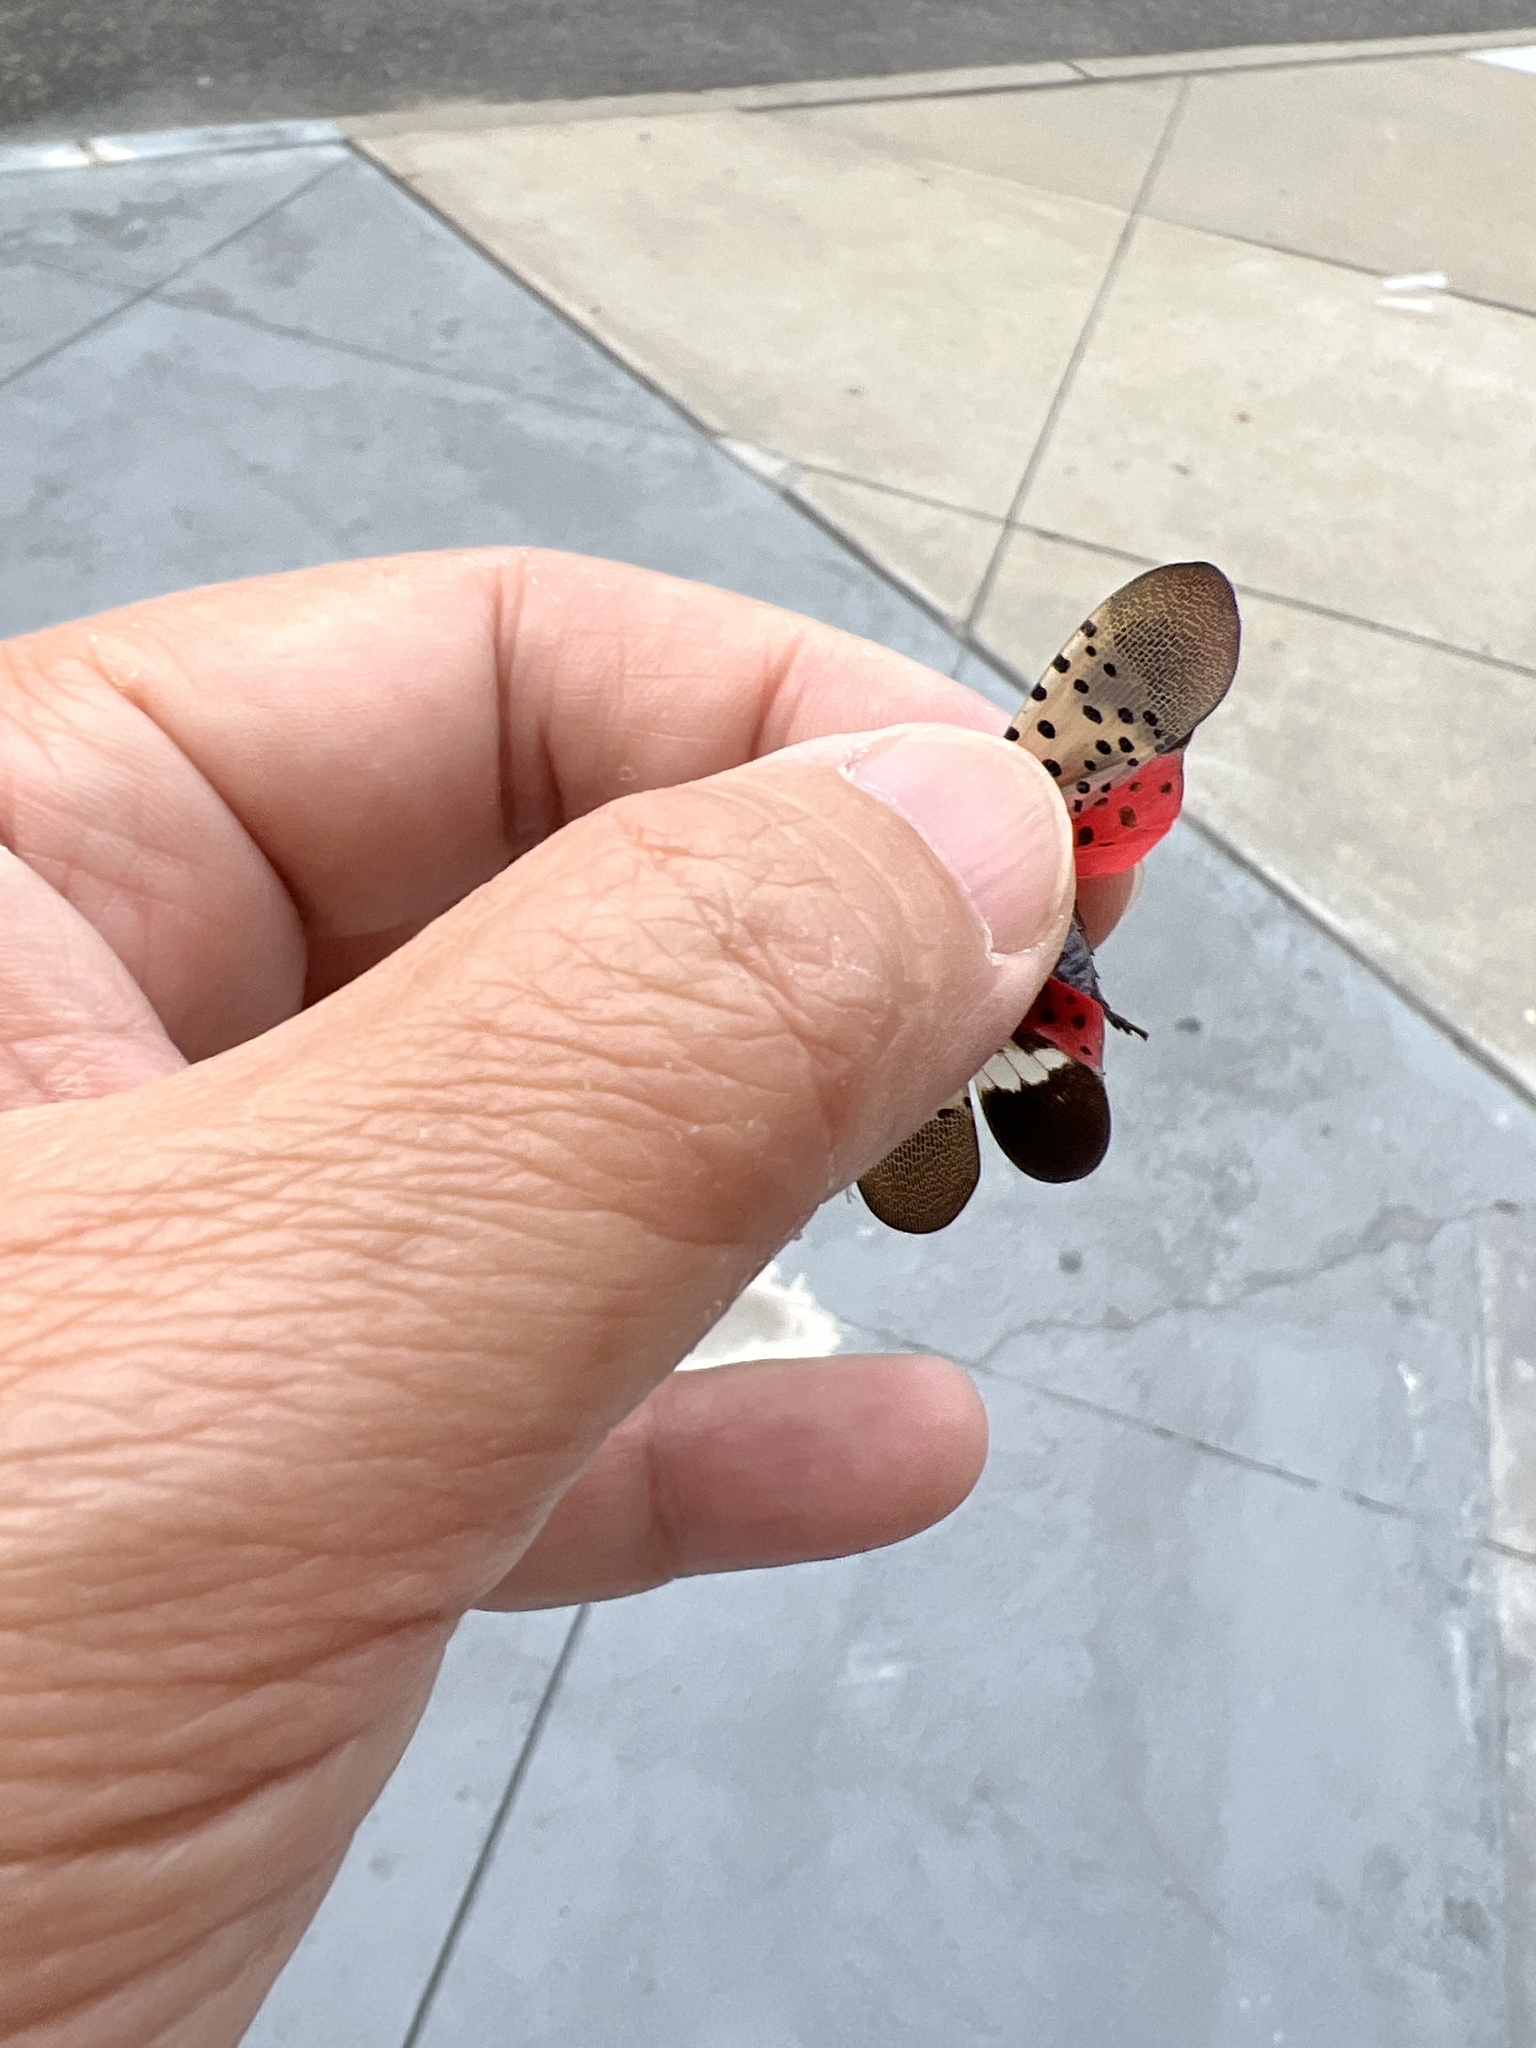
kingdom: Animalia
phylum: Arthropoda
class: Insecta
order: Hemiptera
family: Fulgoridae
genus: Lycorma
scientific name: Lycorma delicatula
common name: Spotted lanternfly
